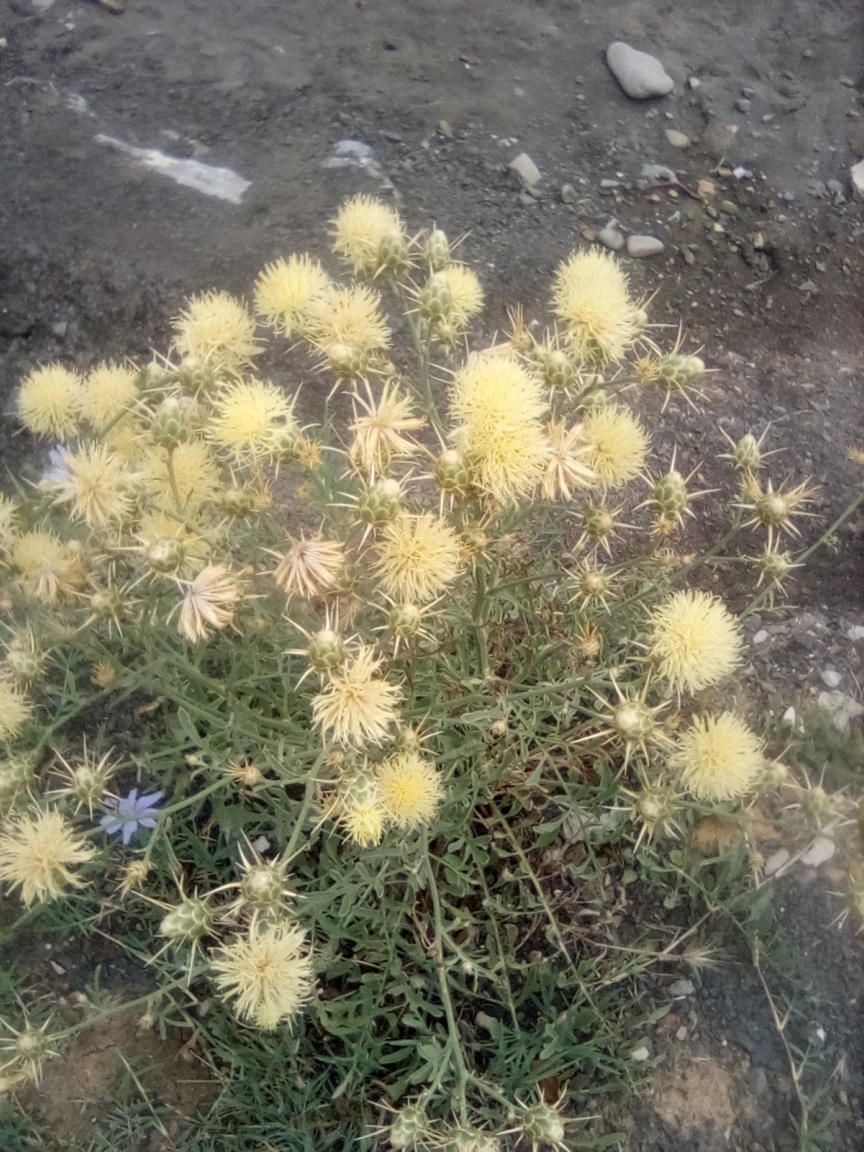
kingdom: Plantae
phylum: Tracheophyta
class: Magnoliopsida
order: Asterales
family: Asteraceae
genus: Centaurea
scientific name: Centaurea salonitana
